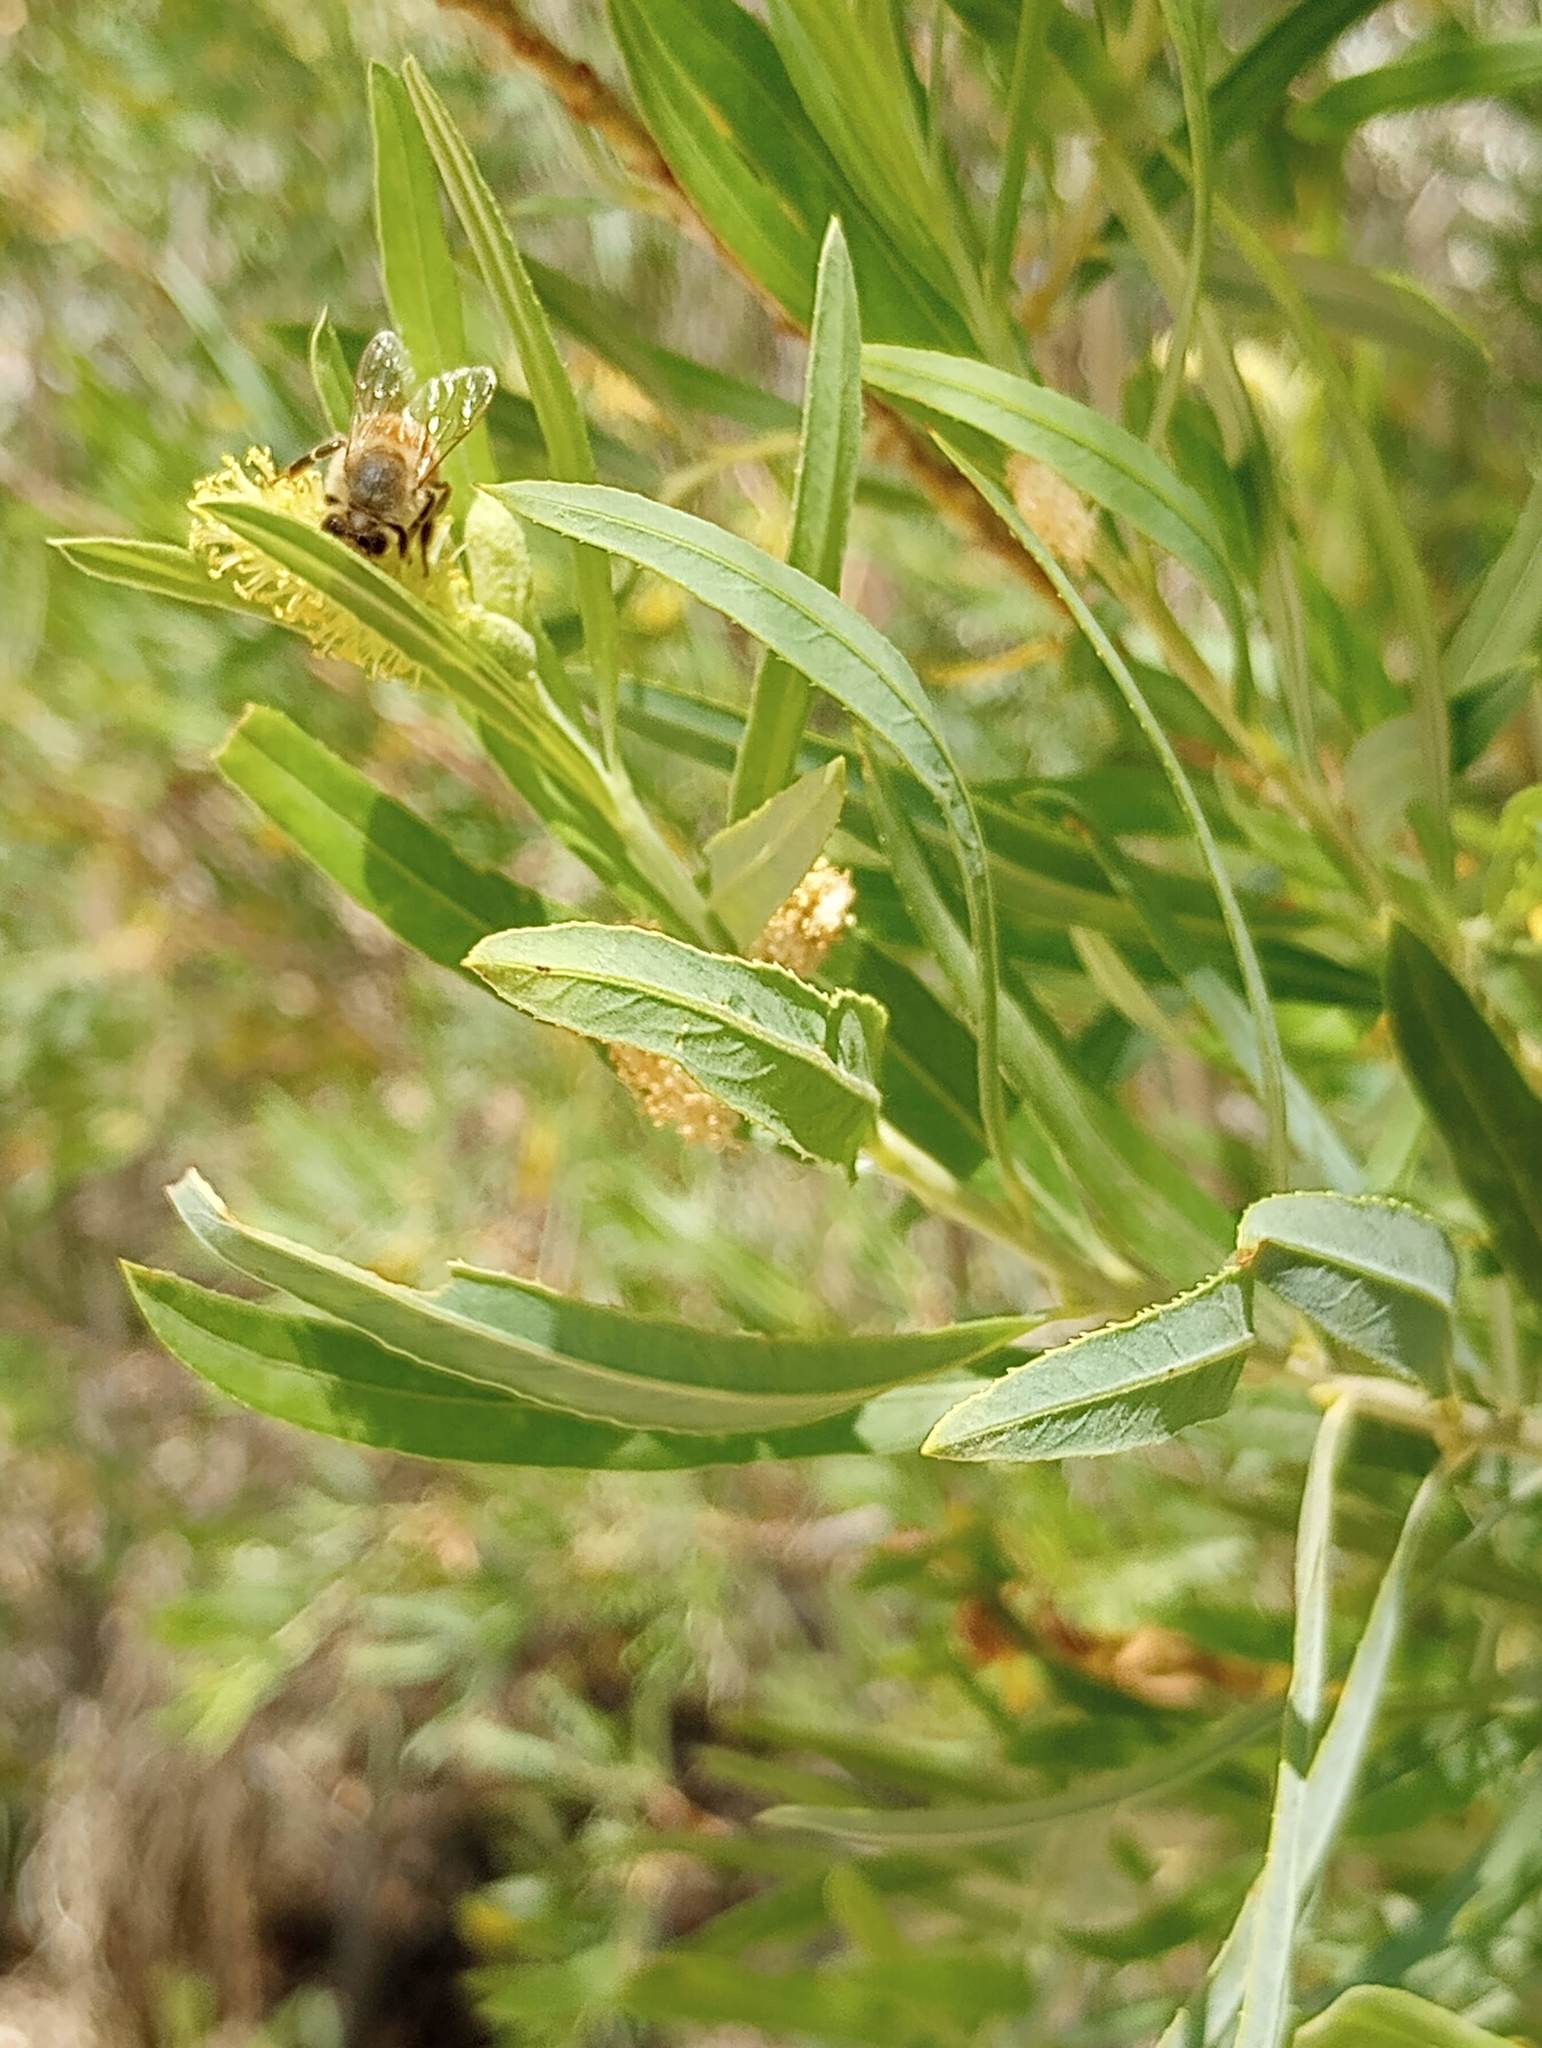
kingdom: Animalia
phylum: Arthropoda
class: Insecta
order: Hymenoptera
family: Apidae
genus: Apis
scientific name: Apis mellifera
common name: Honey bee
